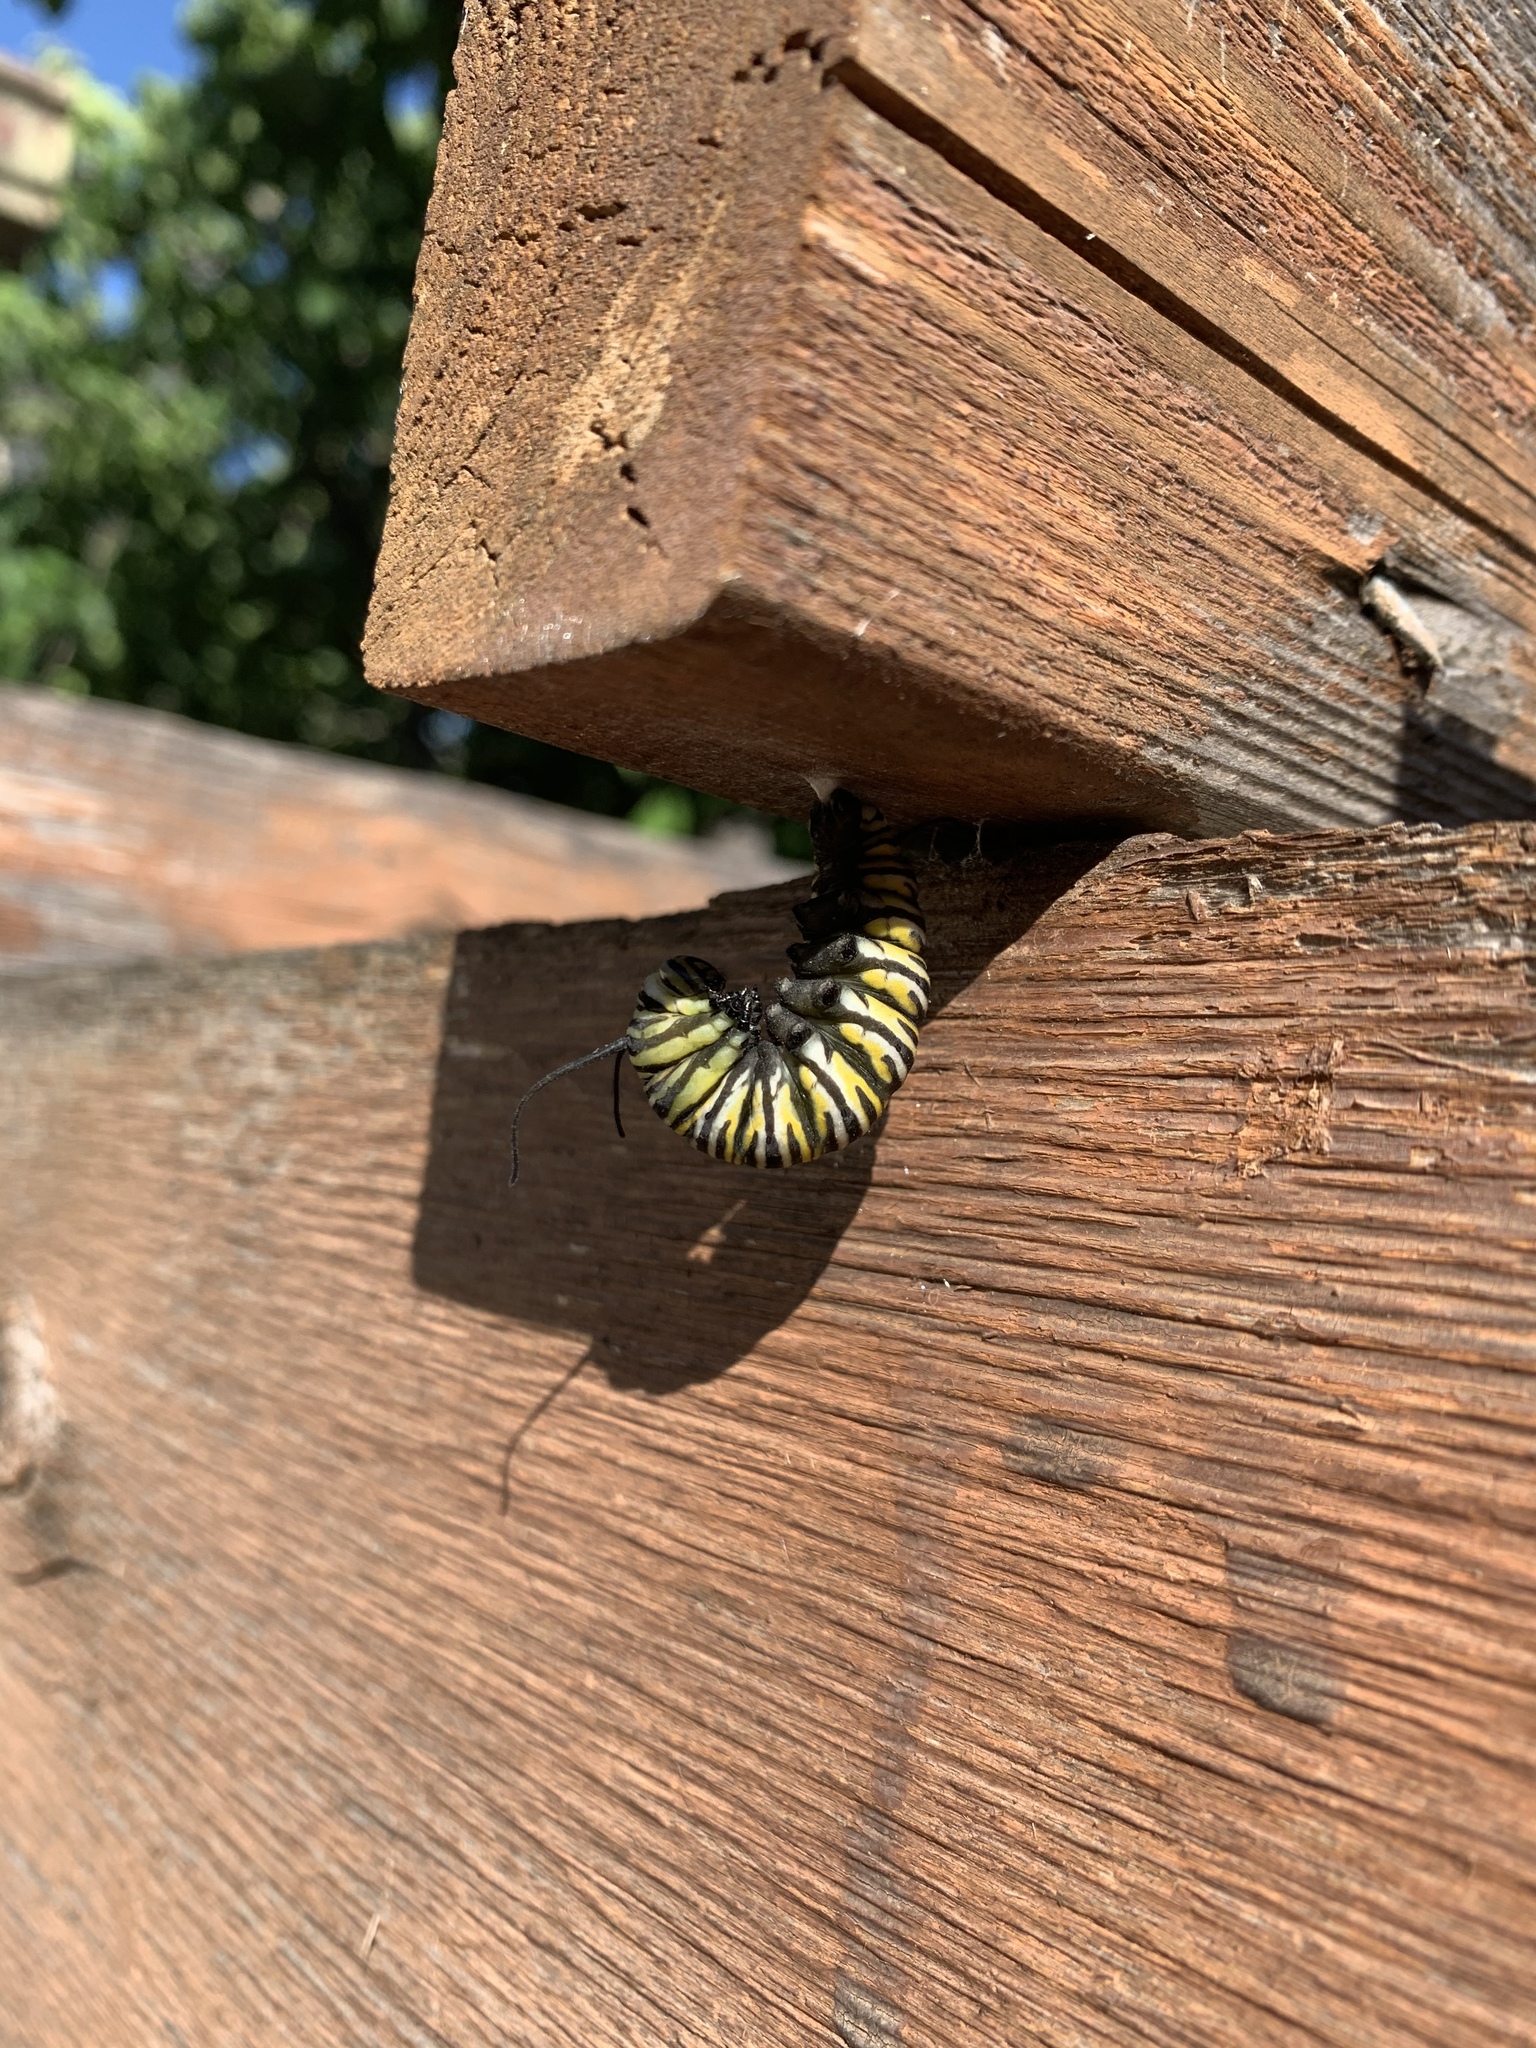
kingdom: Animalia
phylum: Arthropoda
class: Insecta
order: Lepidoptera
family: Nymphalidae
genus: Danaus
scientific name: Danaus plexippus
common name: Monarch
